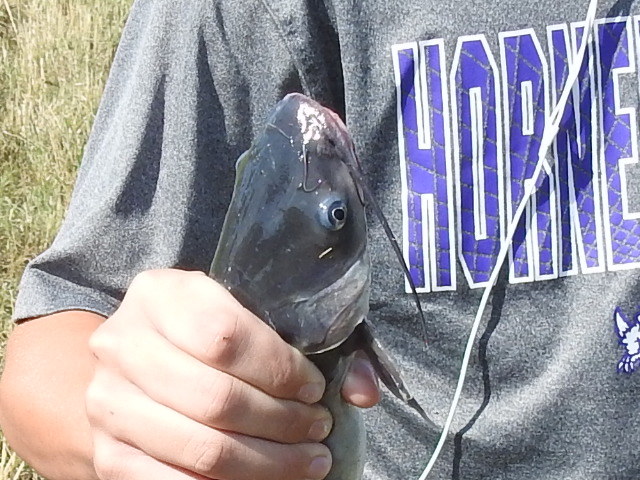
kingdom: Animalia
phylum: Chordata
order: Siluriformes
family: Ictaluridae
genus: Ictalurus
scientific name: Ictalurus punctatus
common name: Channel catfish
